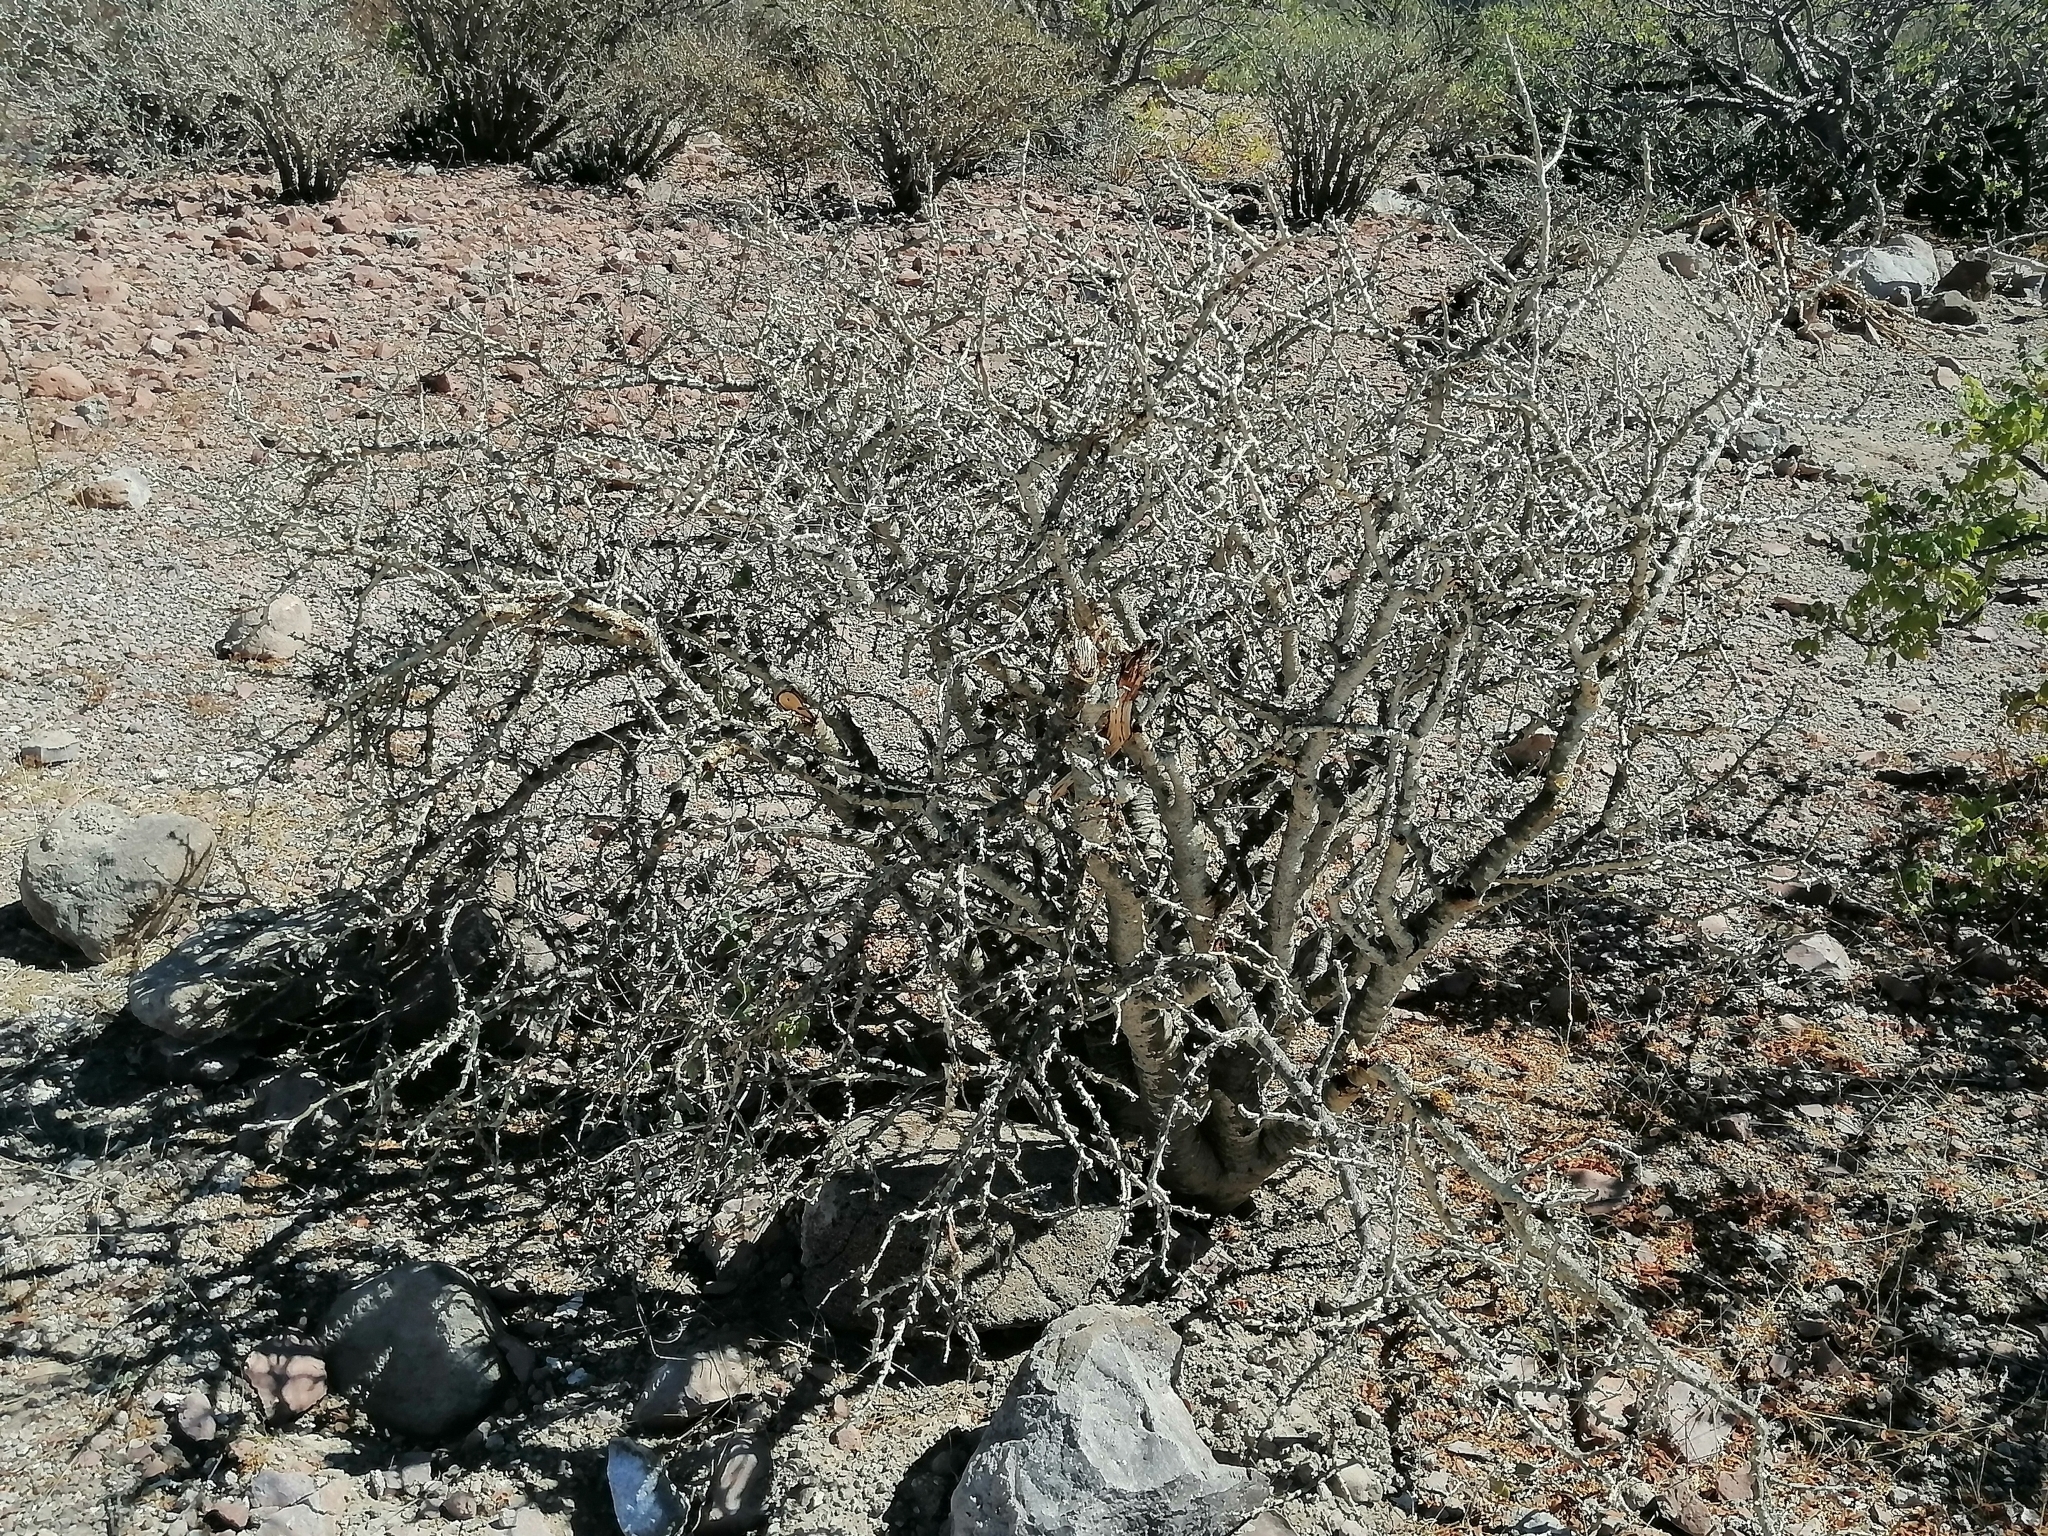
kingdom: Plantae
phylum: Tracheophyta
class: Magnoliopsida
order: Malpighiales
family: Euphorbiaceae
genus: Jatropha
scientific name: Jatropha cuneata
